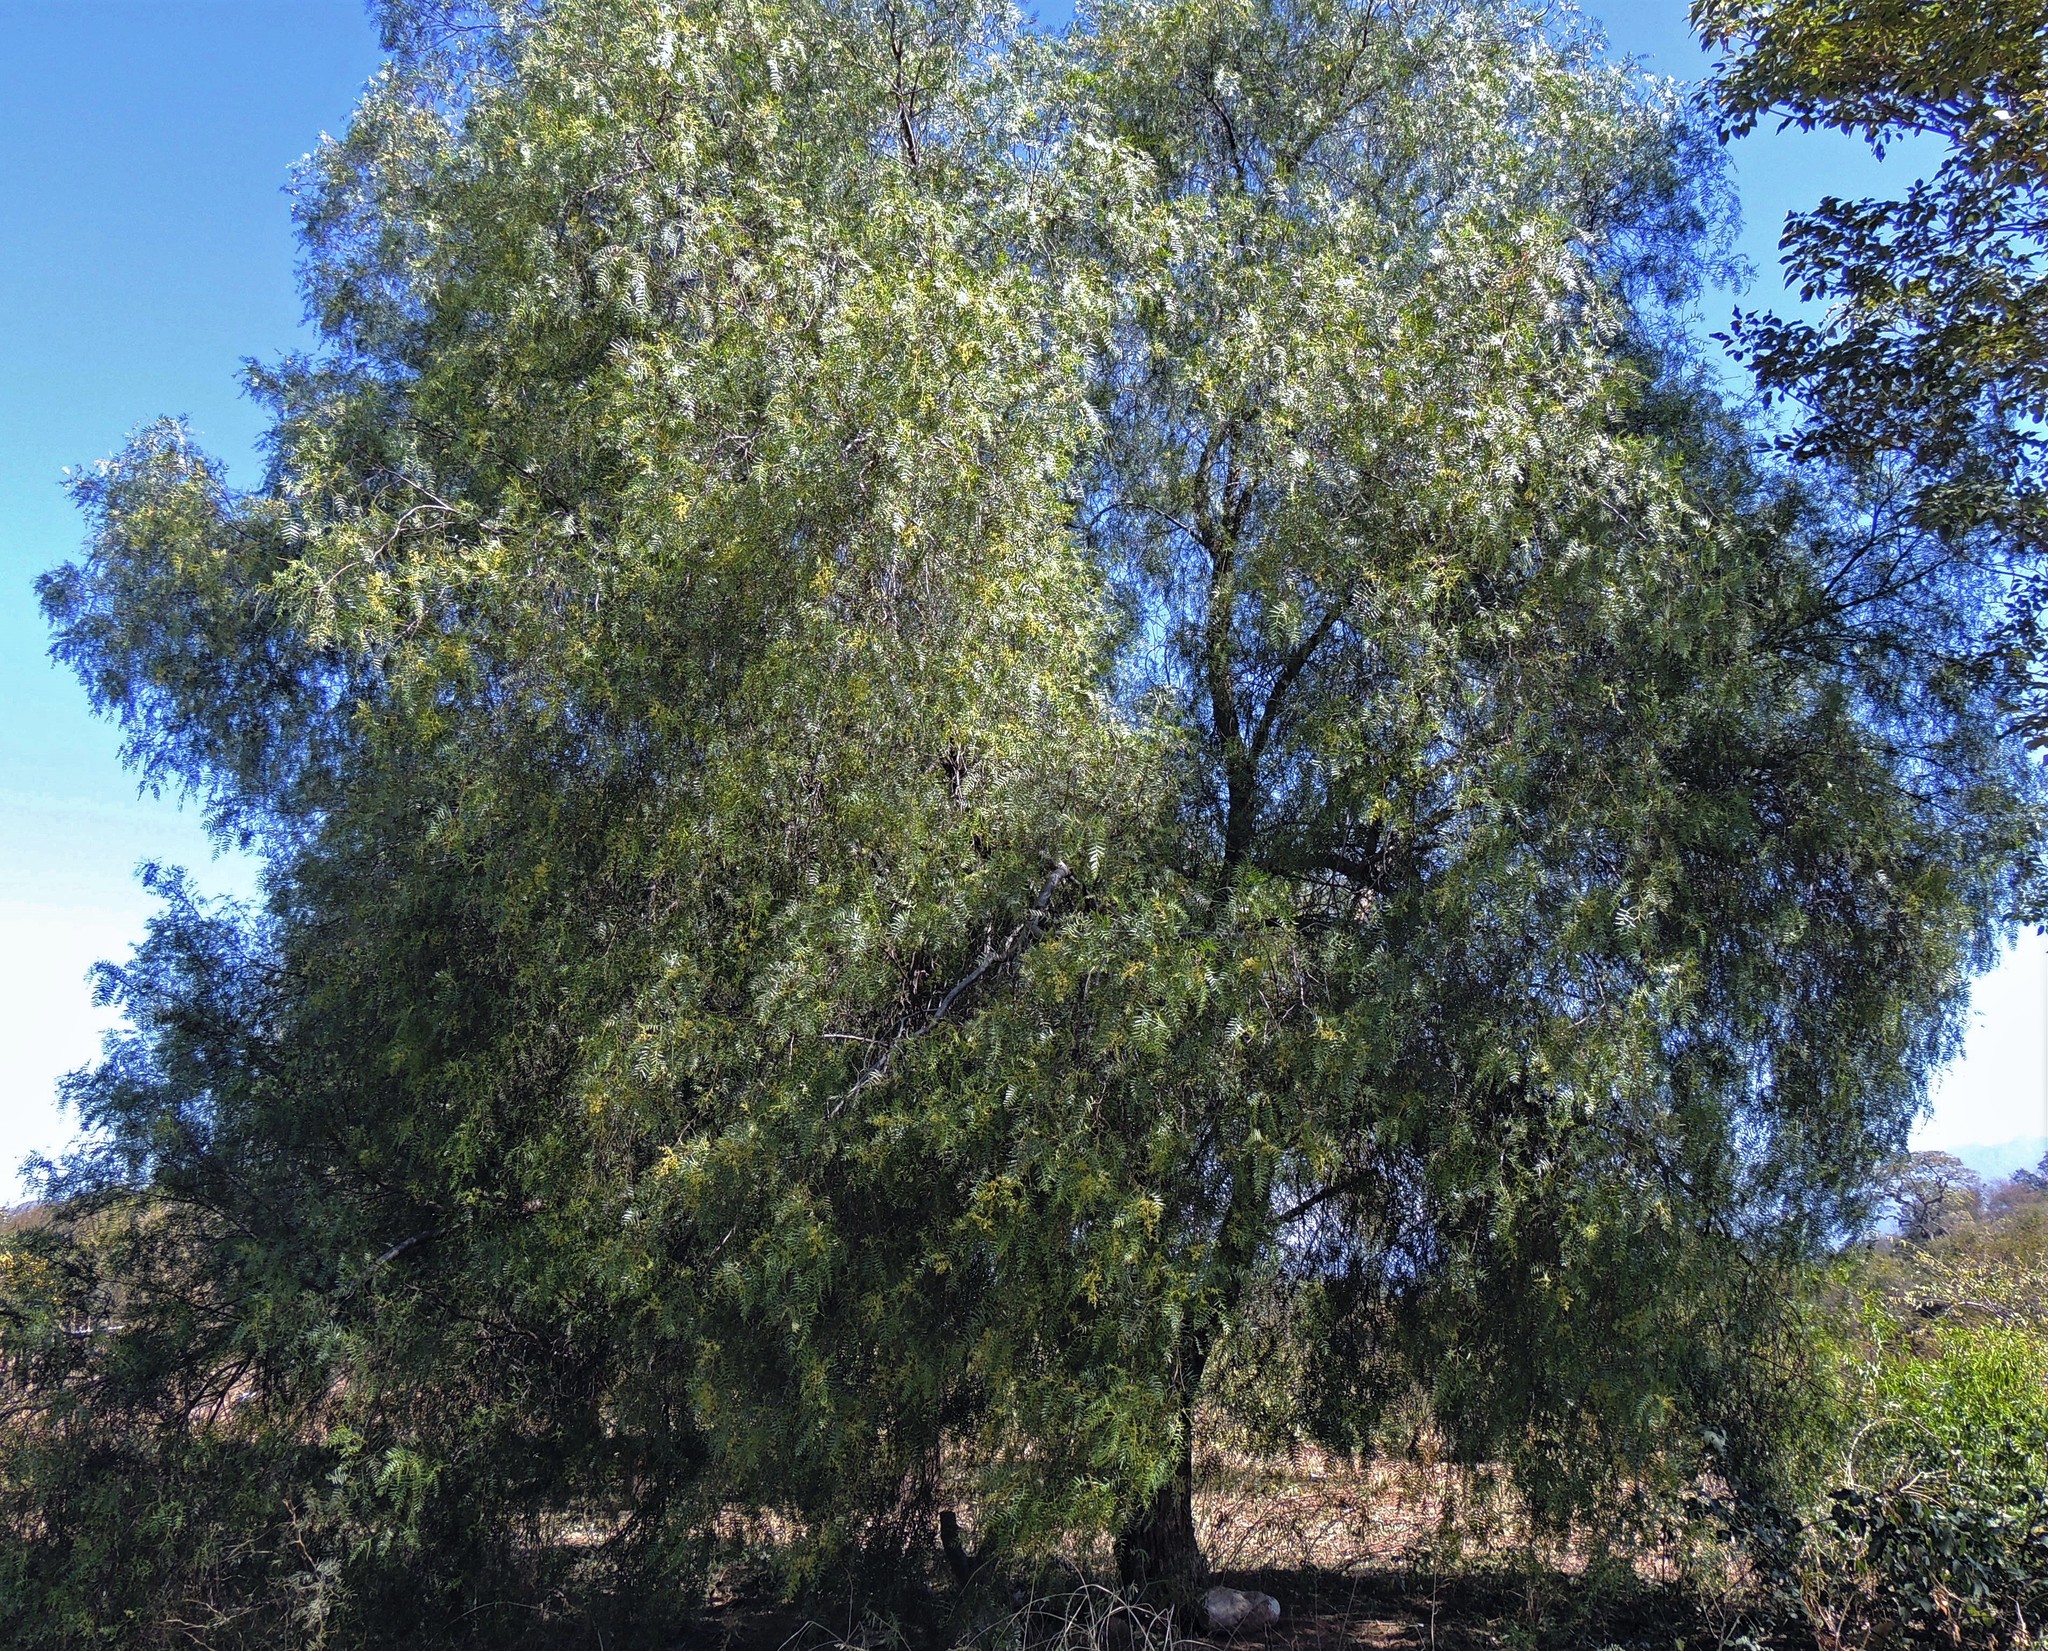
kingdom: Plantae
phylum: Tracheophyta
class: Magnoliopsida
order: Sapindales
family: Anacardiaceae
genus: Schinus
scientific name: Schinus areira
